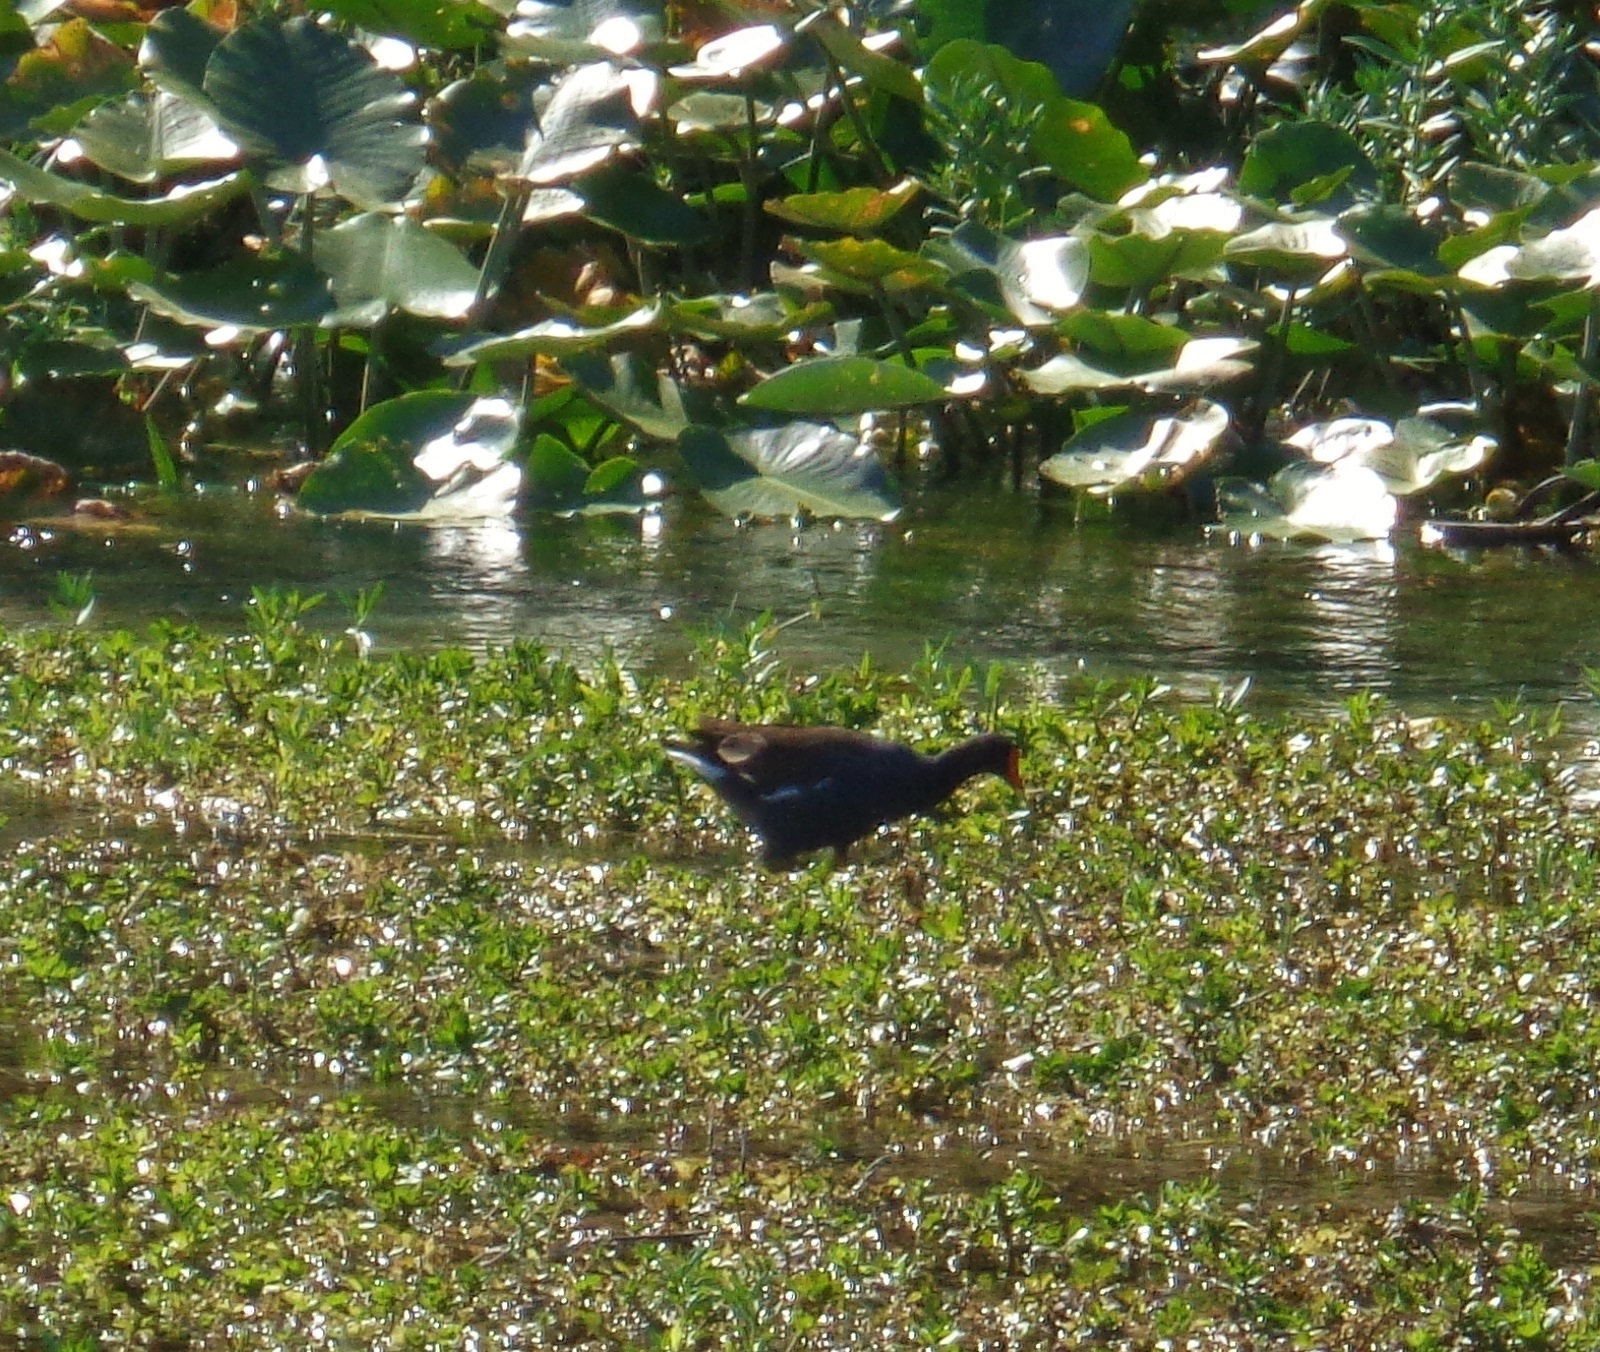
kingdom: Animalia
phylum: Chordata
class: Aves
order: Gruiformes
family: Rallidae
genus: Gallinula
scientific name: Gallinula chloropus
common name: Common moorhen
